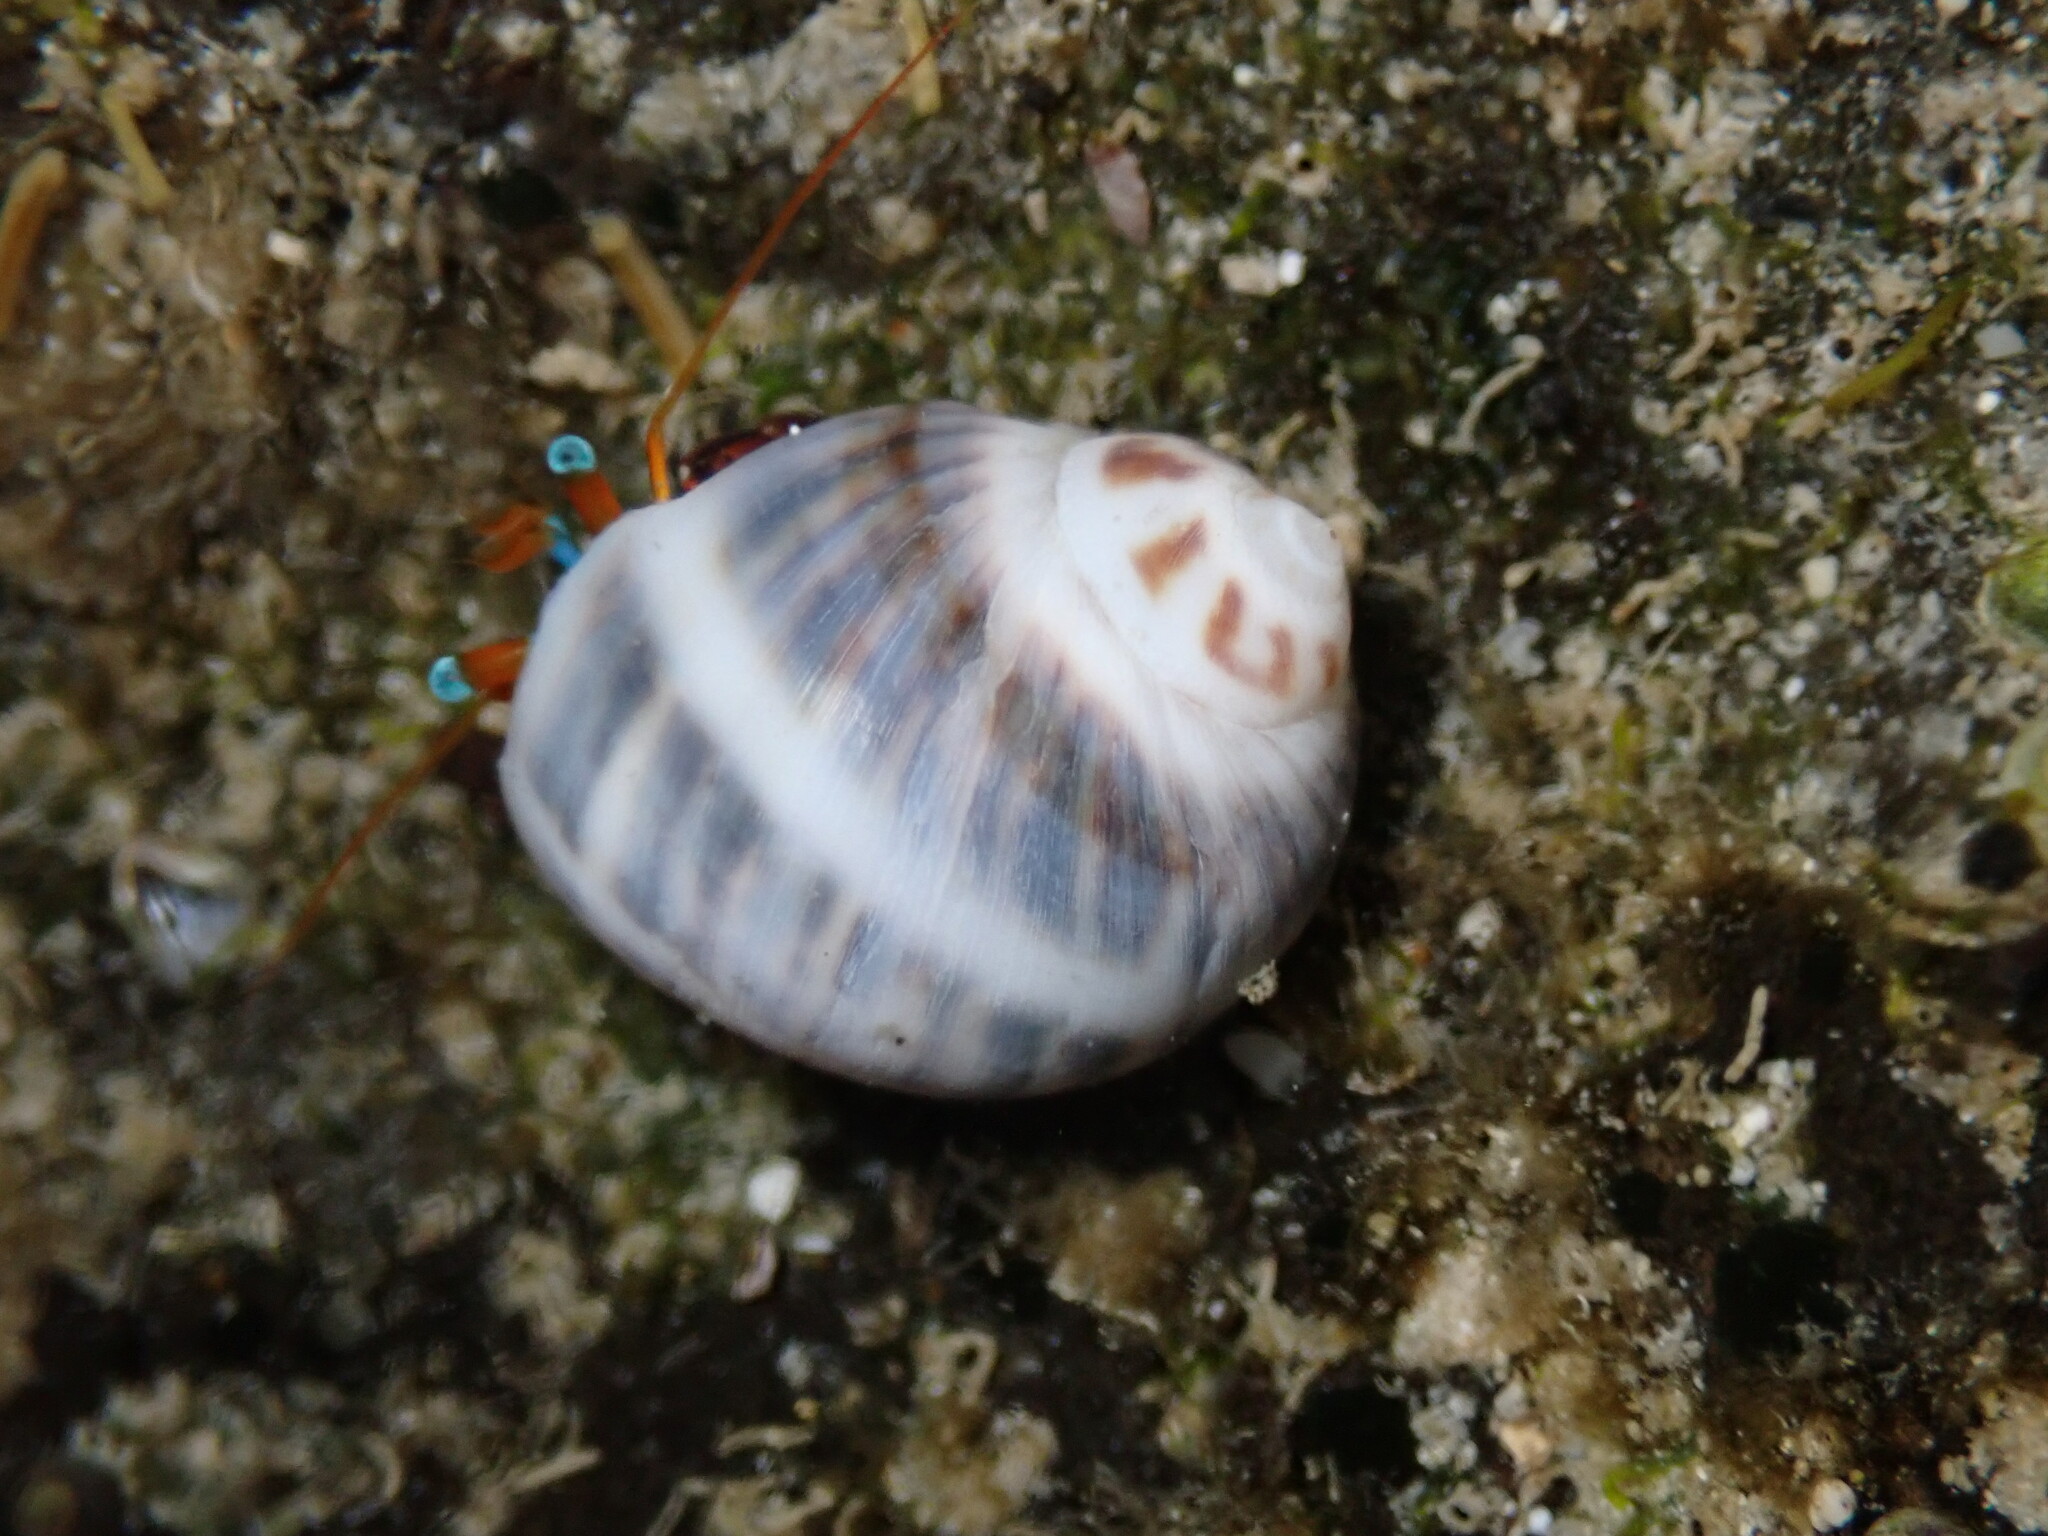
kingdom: Animalia
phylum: Mollusca
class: Gastropoda
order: Littorinimorpha
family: Naticidae
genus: Notocochlis
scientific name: Notocochlis gualteriana
